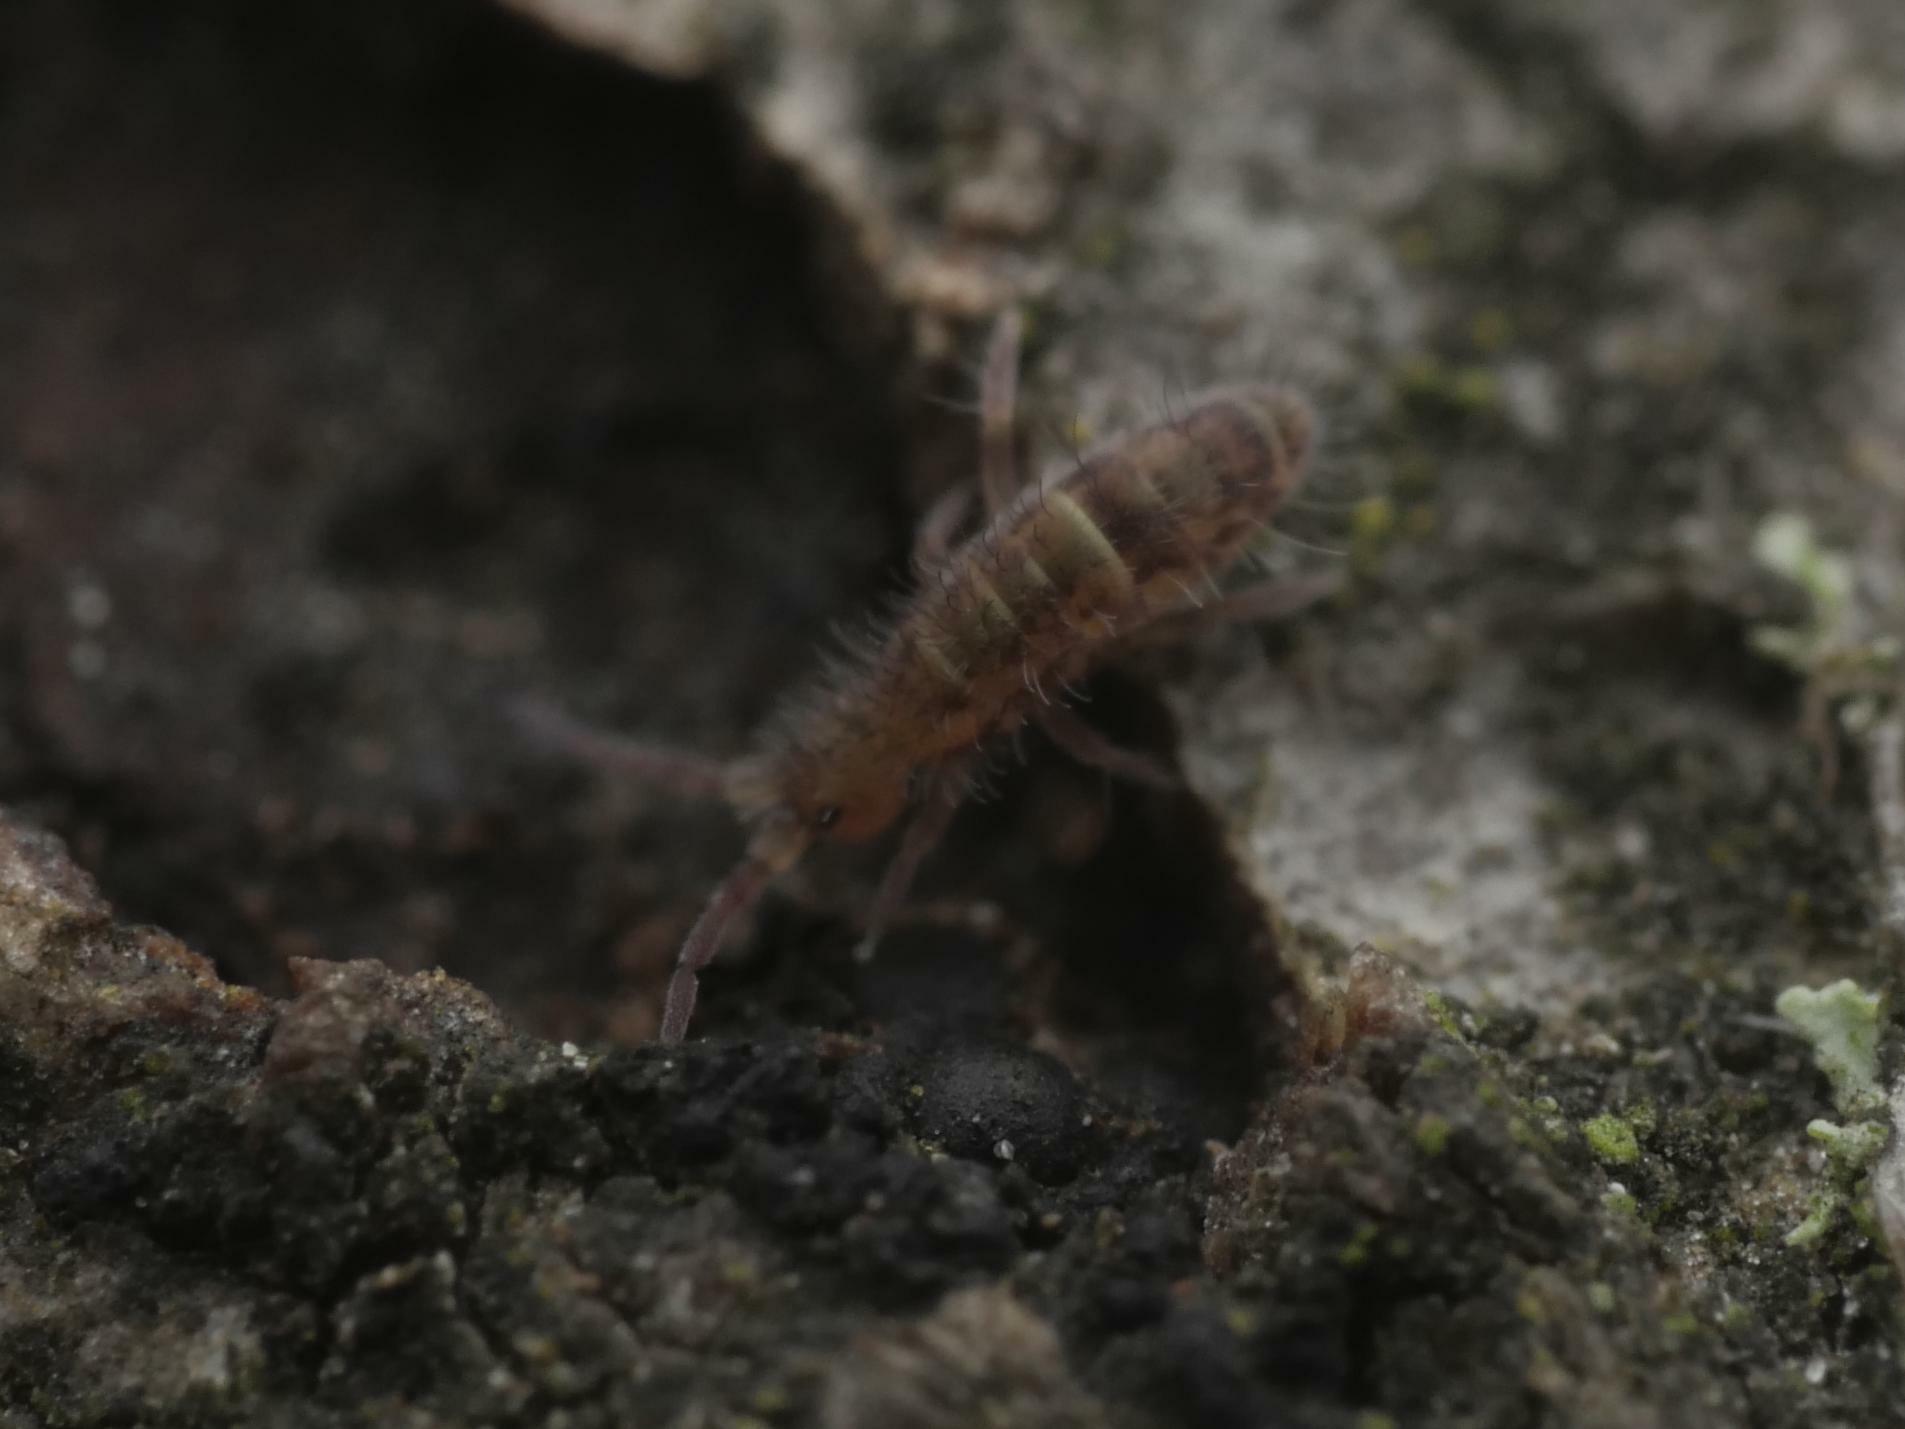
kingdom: Animalia
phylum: Arthropoda
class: Collembola
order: Entomobryomorpha
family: Orchesellidae
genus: Orchesella
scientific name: Orchesella cincta
